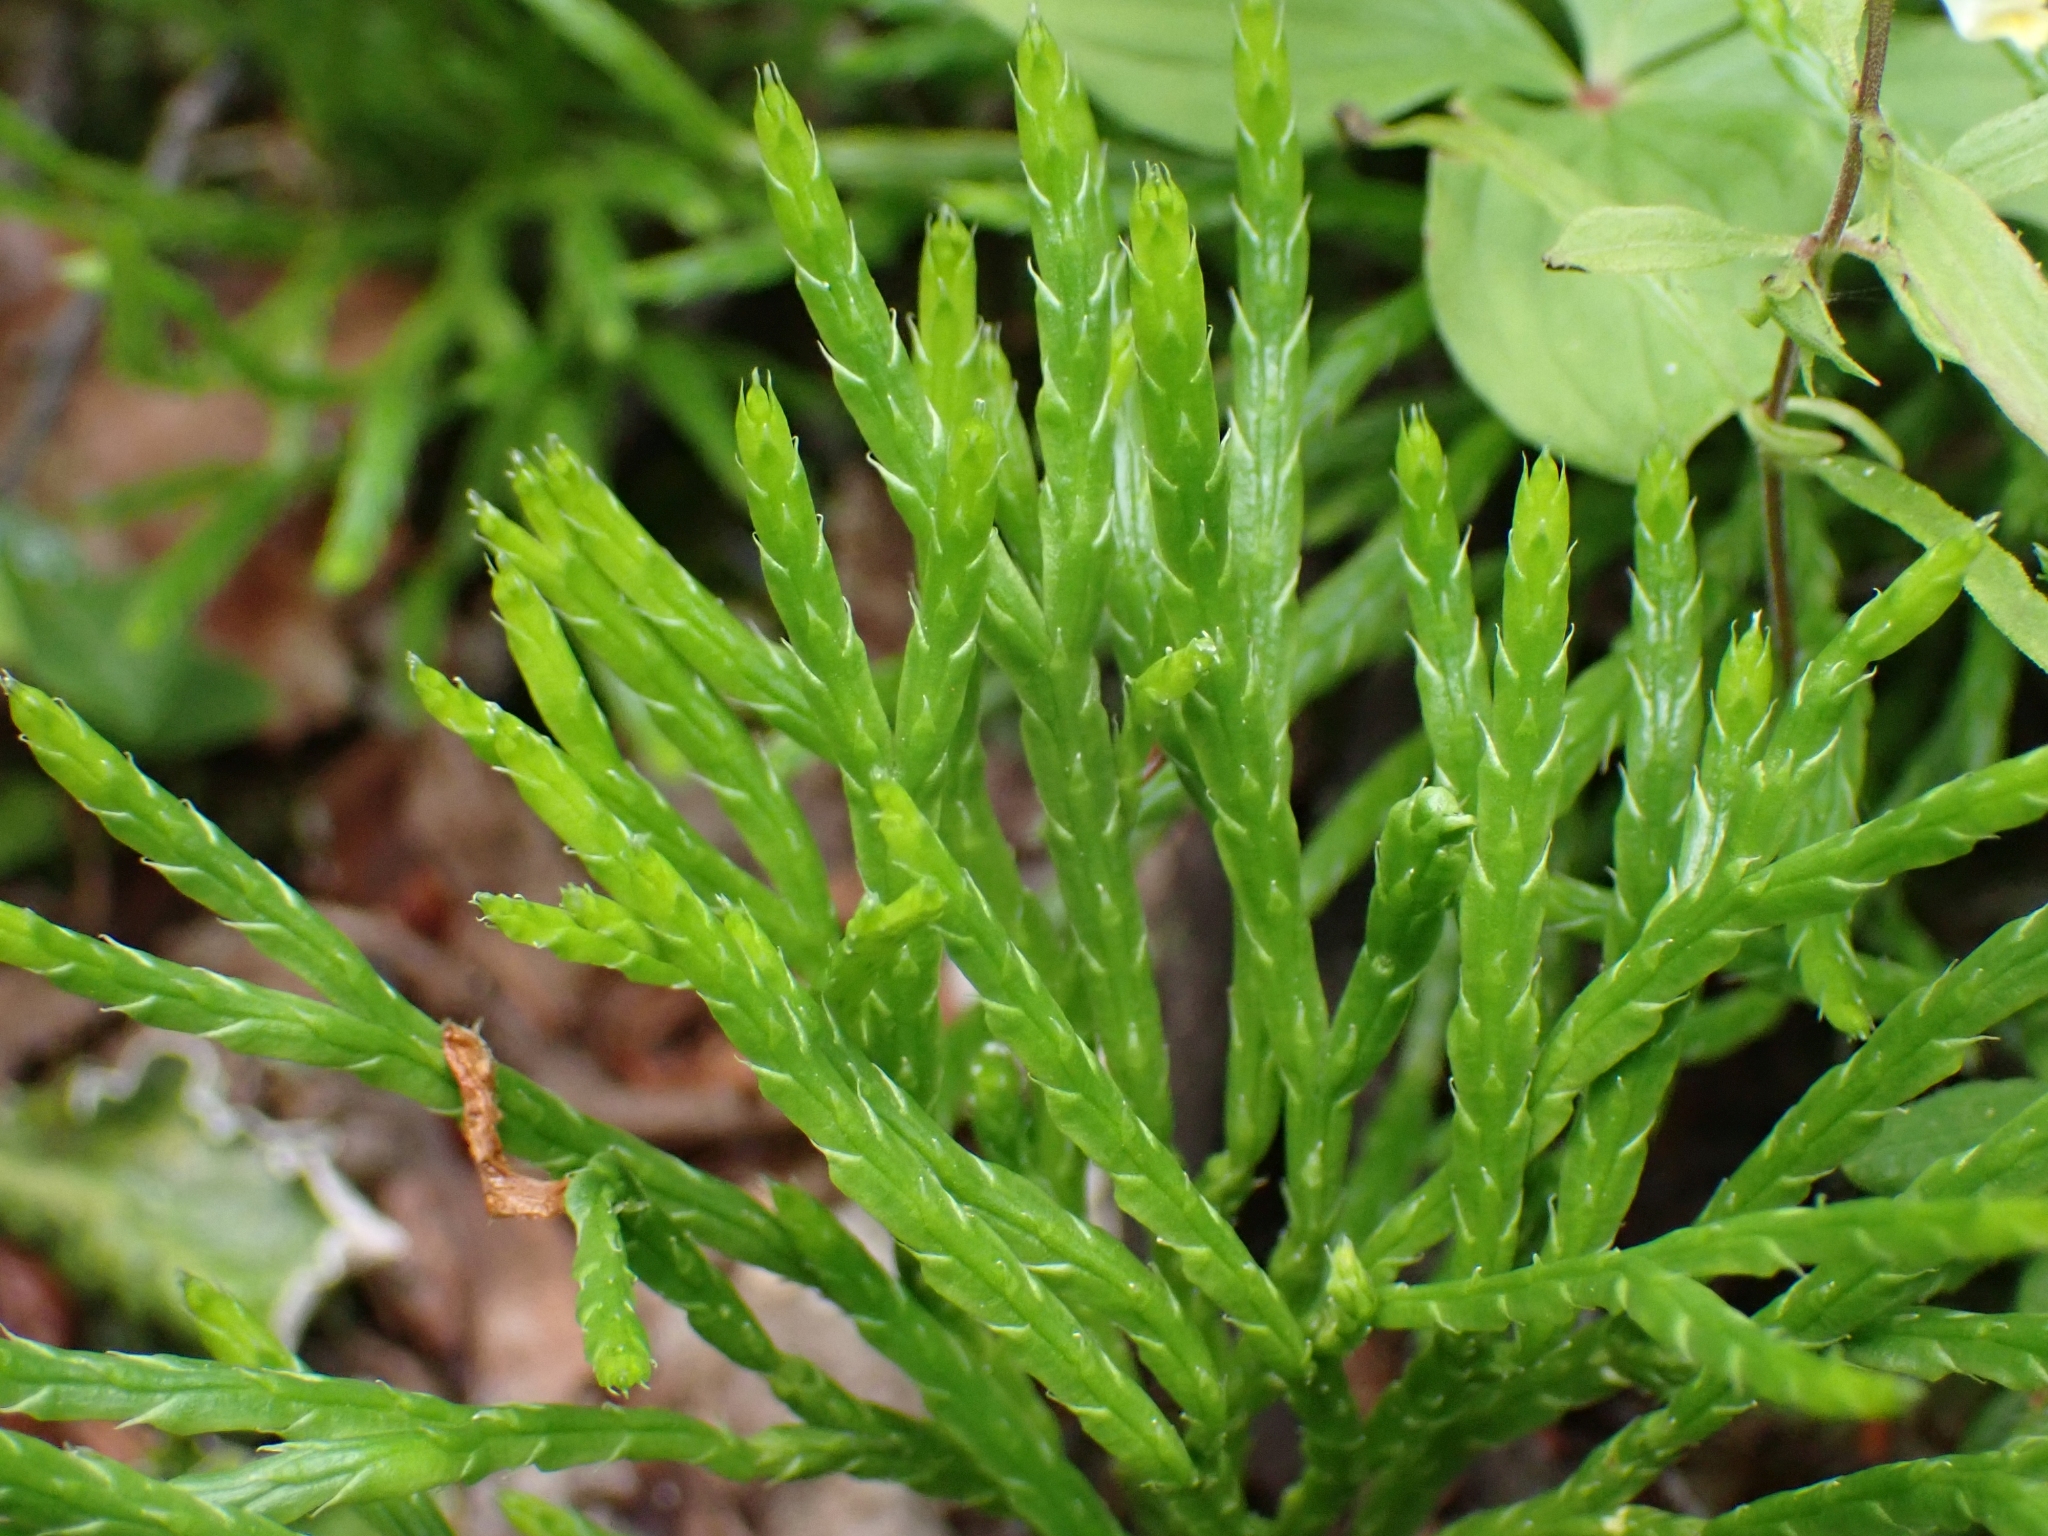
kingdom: Plantae
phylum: Tracheophyta
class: Lycopodiopsida
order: Lycopodiales
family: Lycopodiaceae
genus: Diphasiastrum
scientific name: Diphasiastrum complanatum
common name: Northern running-pine
